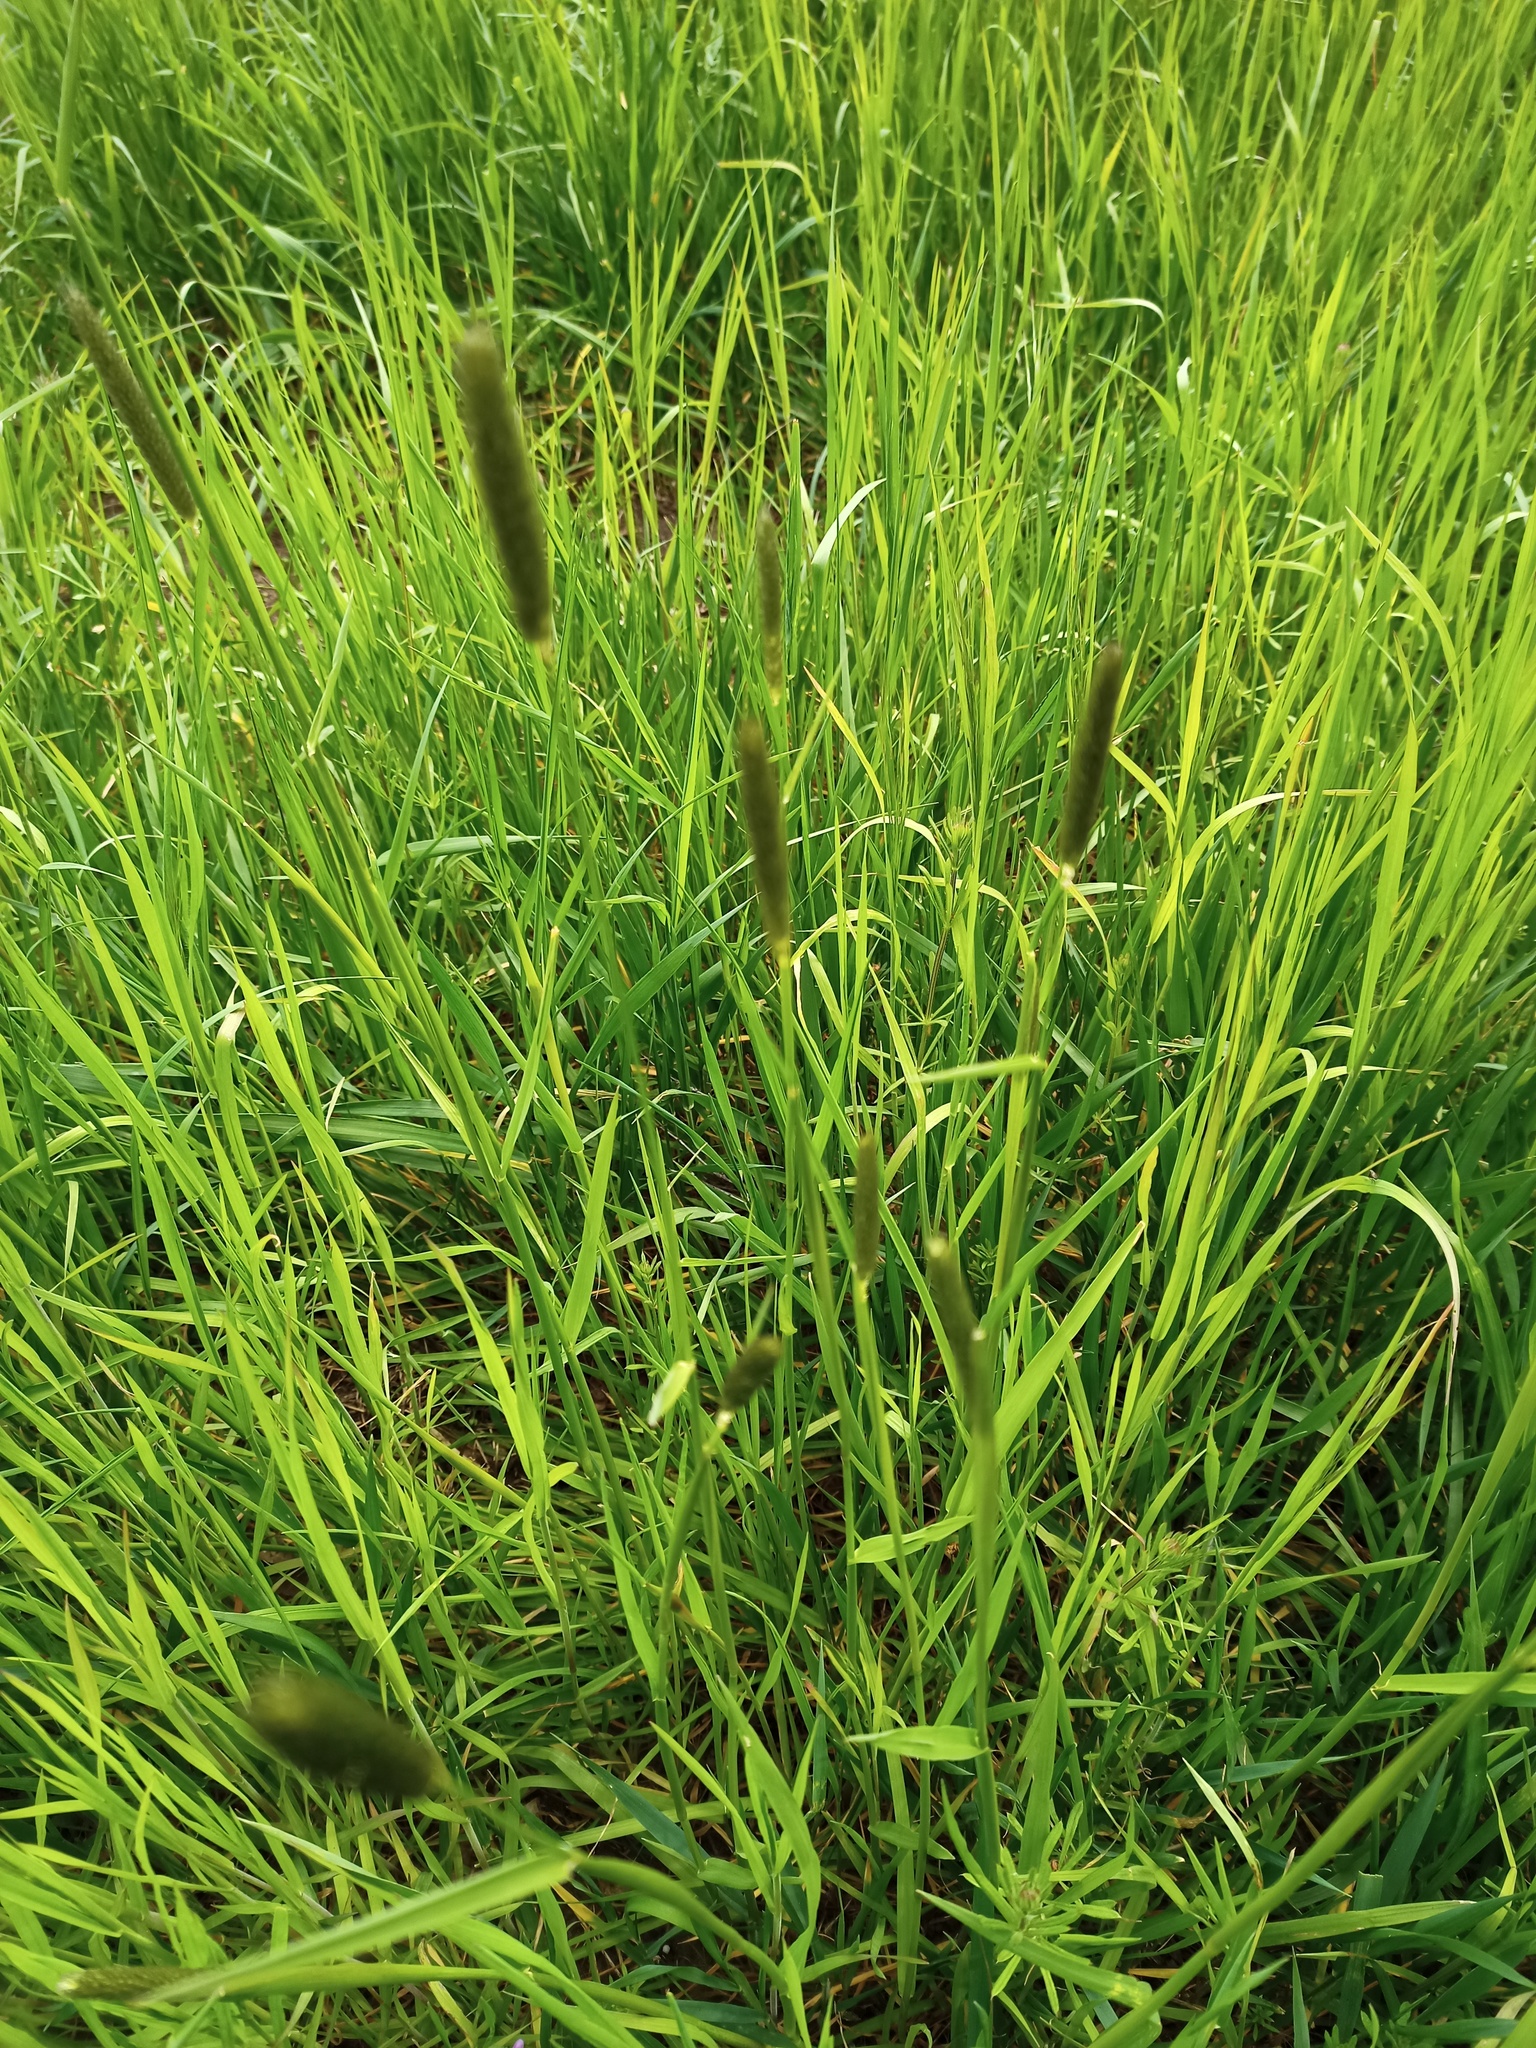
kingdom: Plantae
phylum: Tracheophyta
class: Liliopsida
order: Poales
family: Poaceae
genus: Alopecurus
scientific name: Alopecurus pratensis
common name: Meadow foxtail
